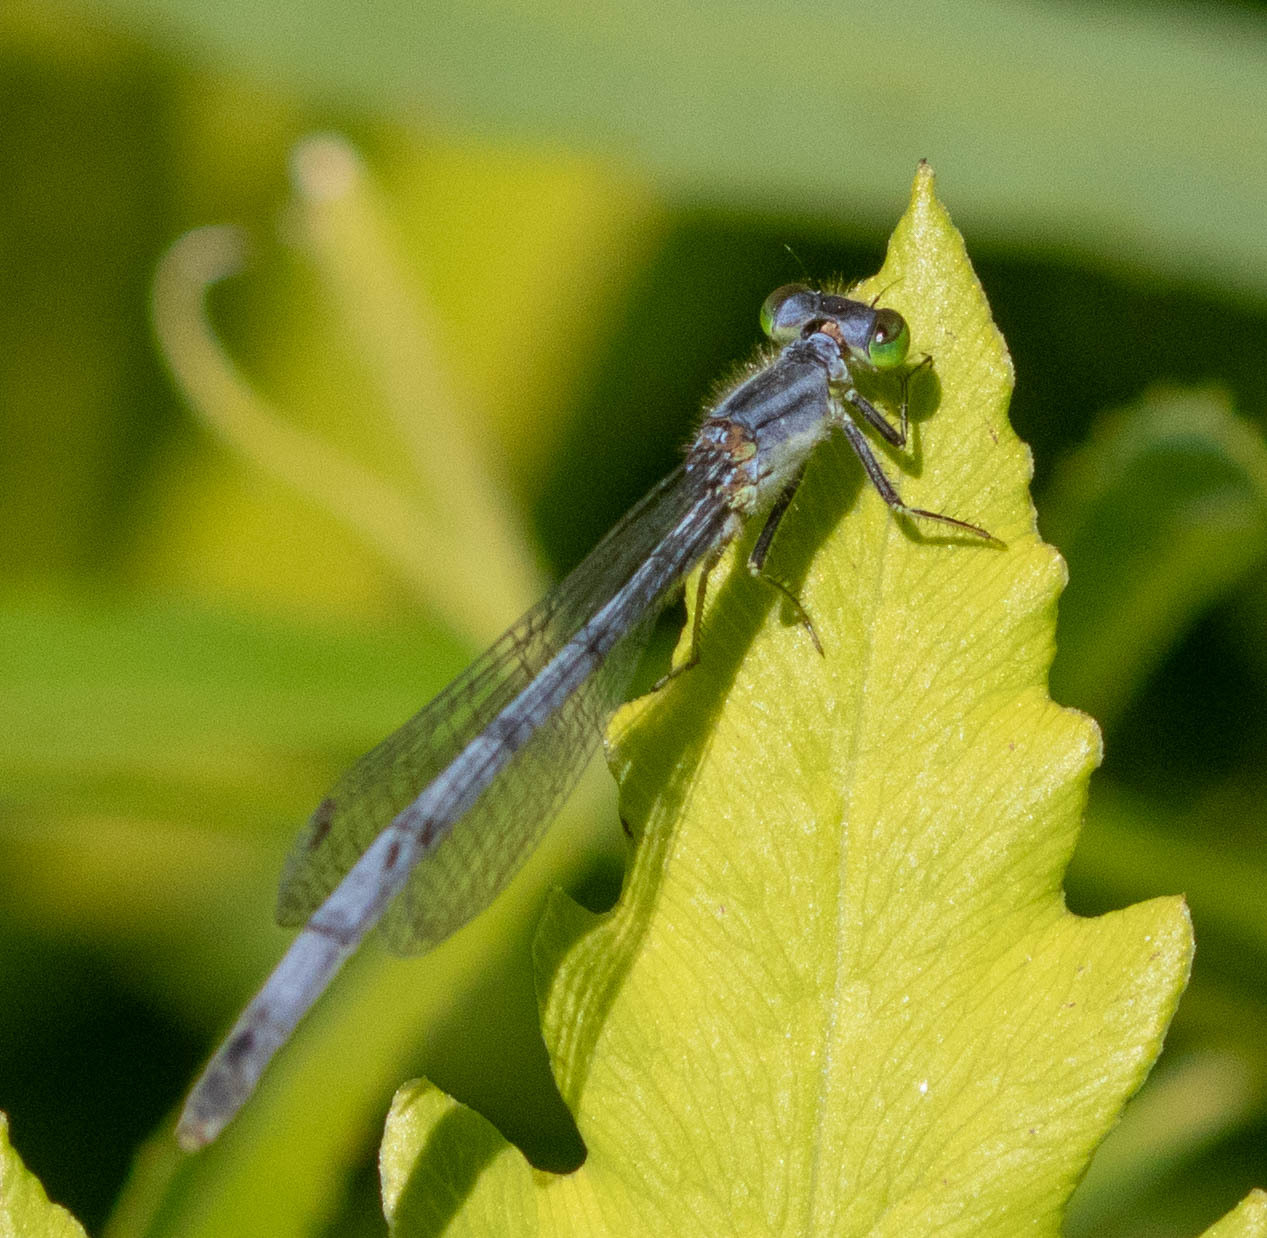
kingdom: Animalia
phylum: Arthropoda
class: Insecta
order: Odonata
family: Coenagrionidae
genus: Ischnura
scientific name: Ischnura verticalis
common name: Eastern forktail
